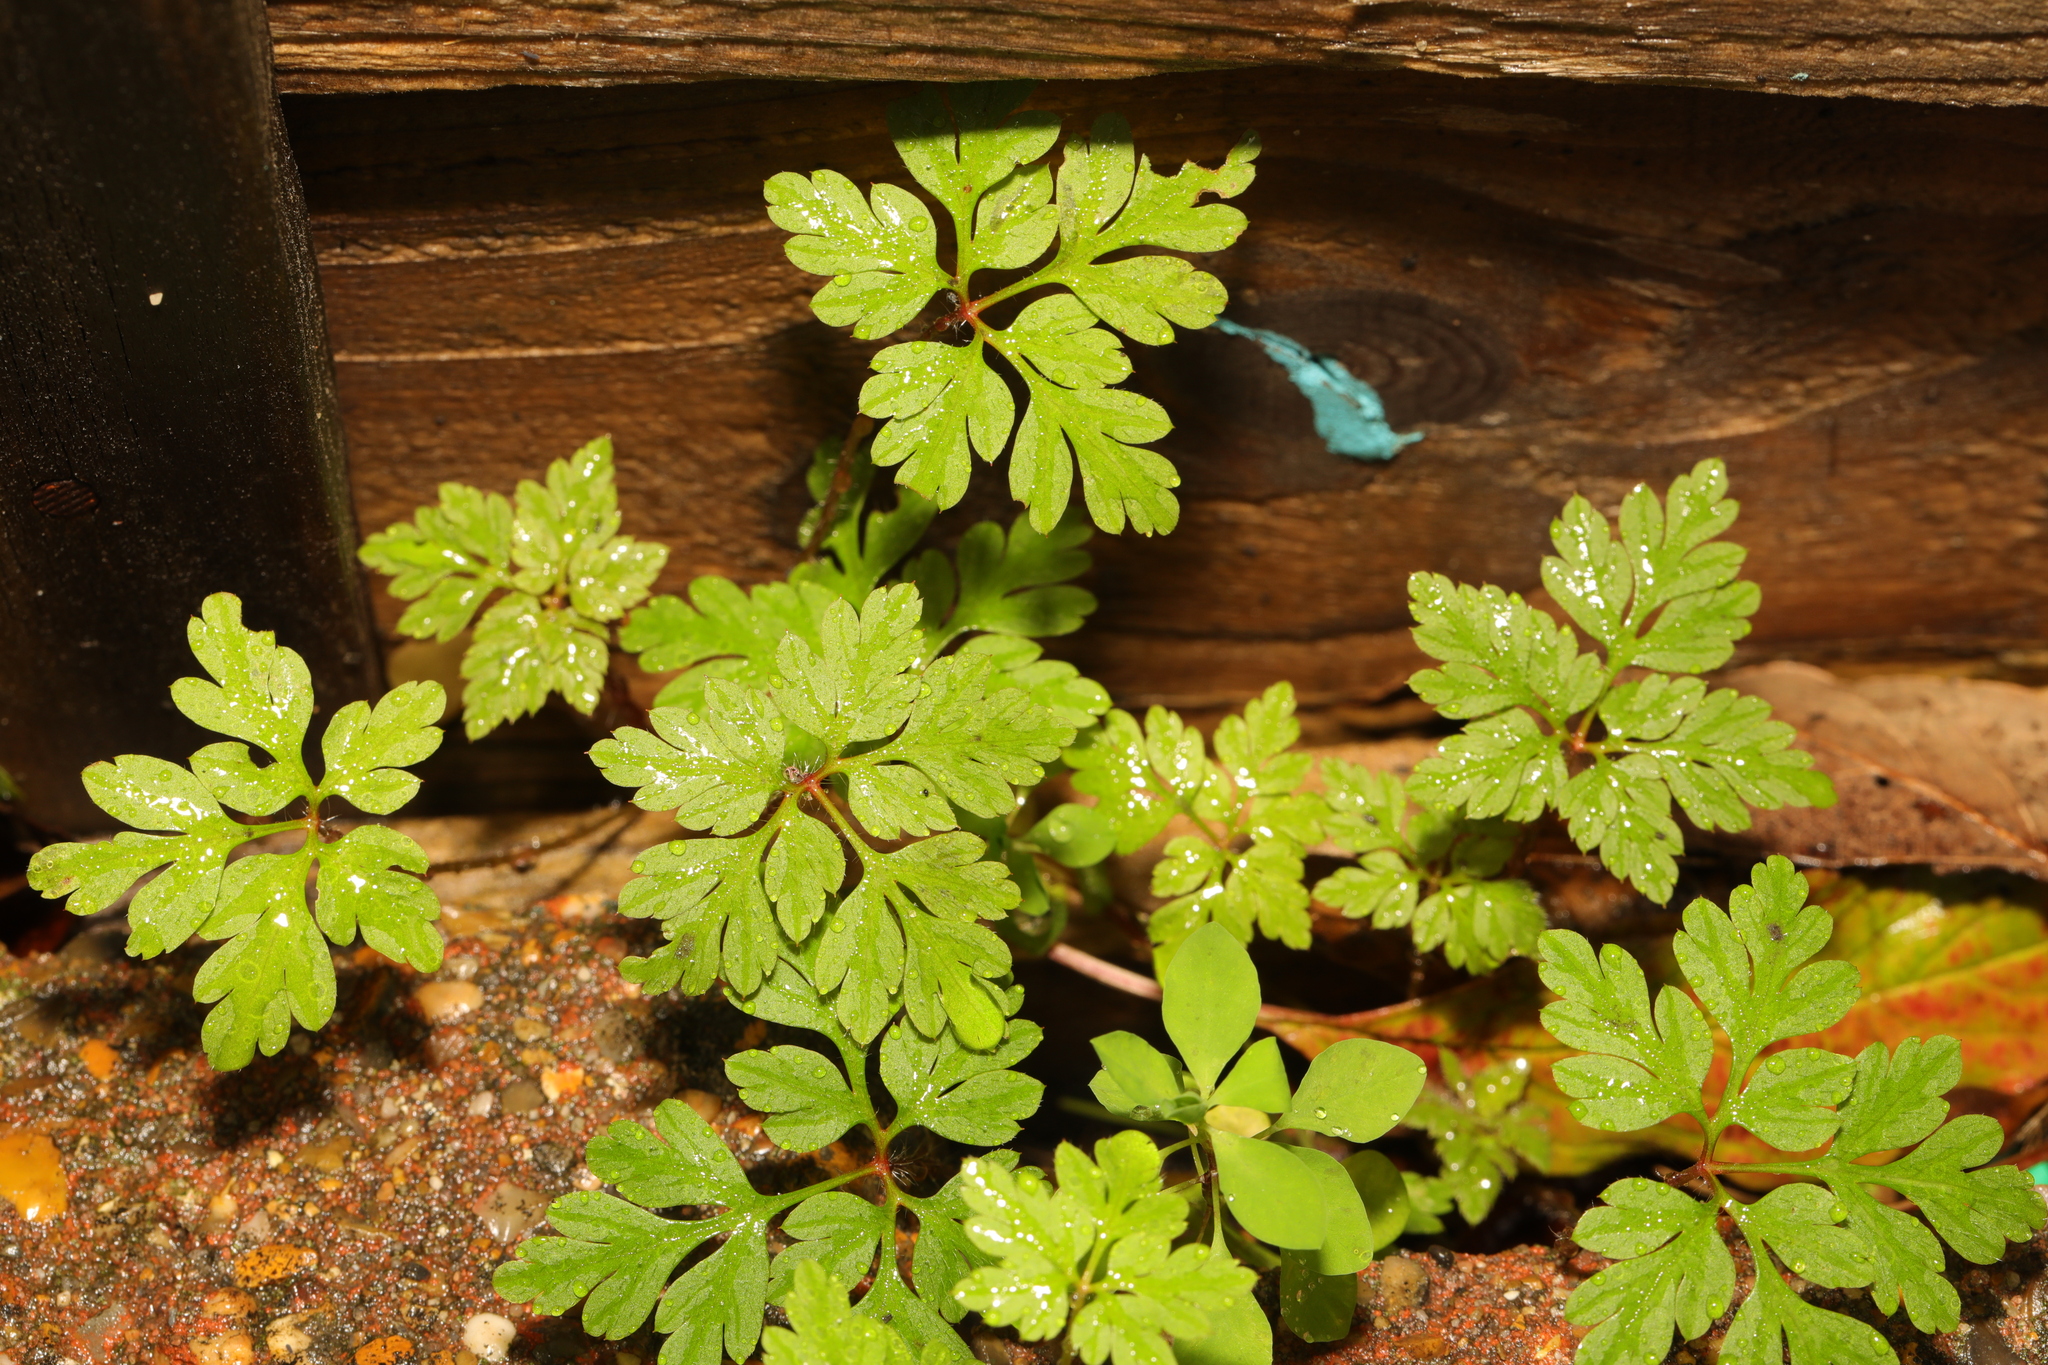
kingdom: Plantae
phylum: Tracheophyta
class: Magnoliopsida
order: Geraniales
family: Geraniaceae
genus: Geranium
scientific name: Geranium robertianum
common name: Herb-robert
